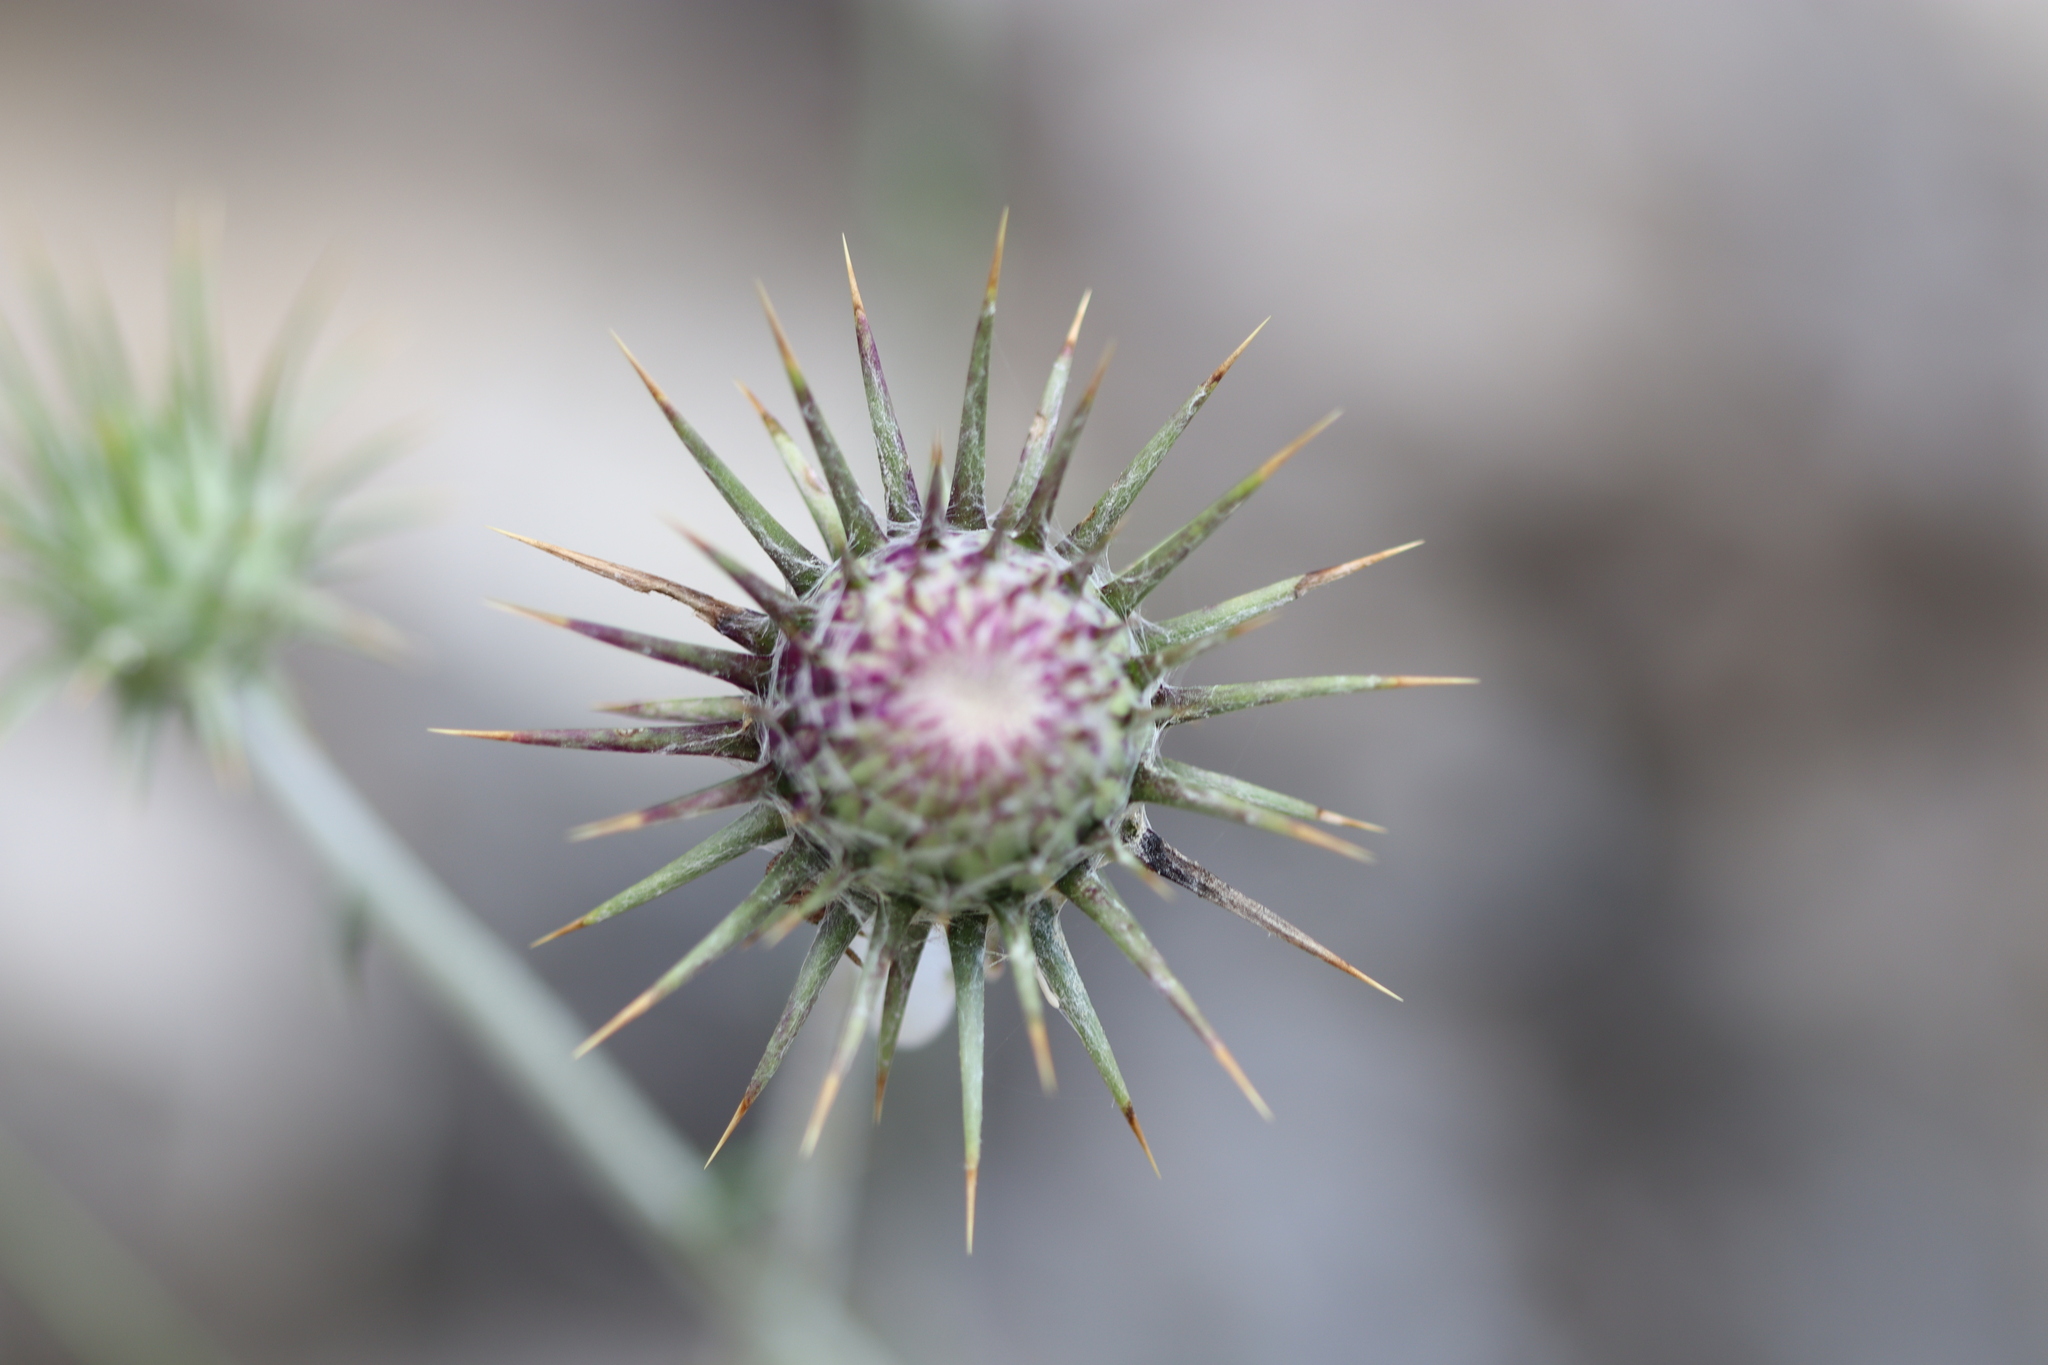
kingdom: Plantae
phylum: Tracheophyta
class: Magnoliopsida
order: Asterales
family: Asteraceae
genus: Lamyropsis
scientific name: Lamyropsis cynaroides
